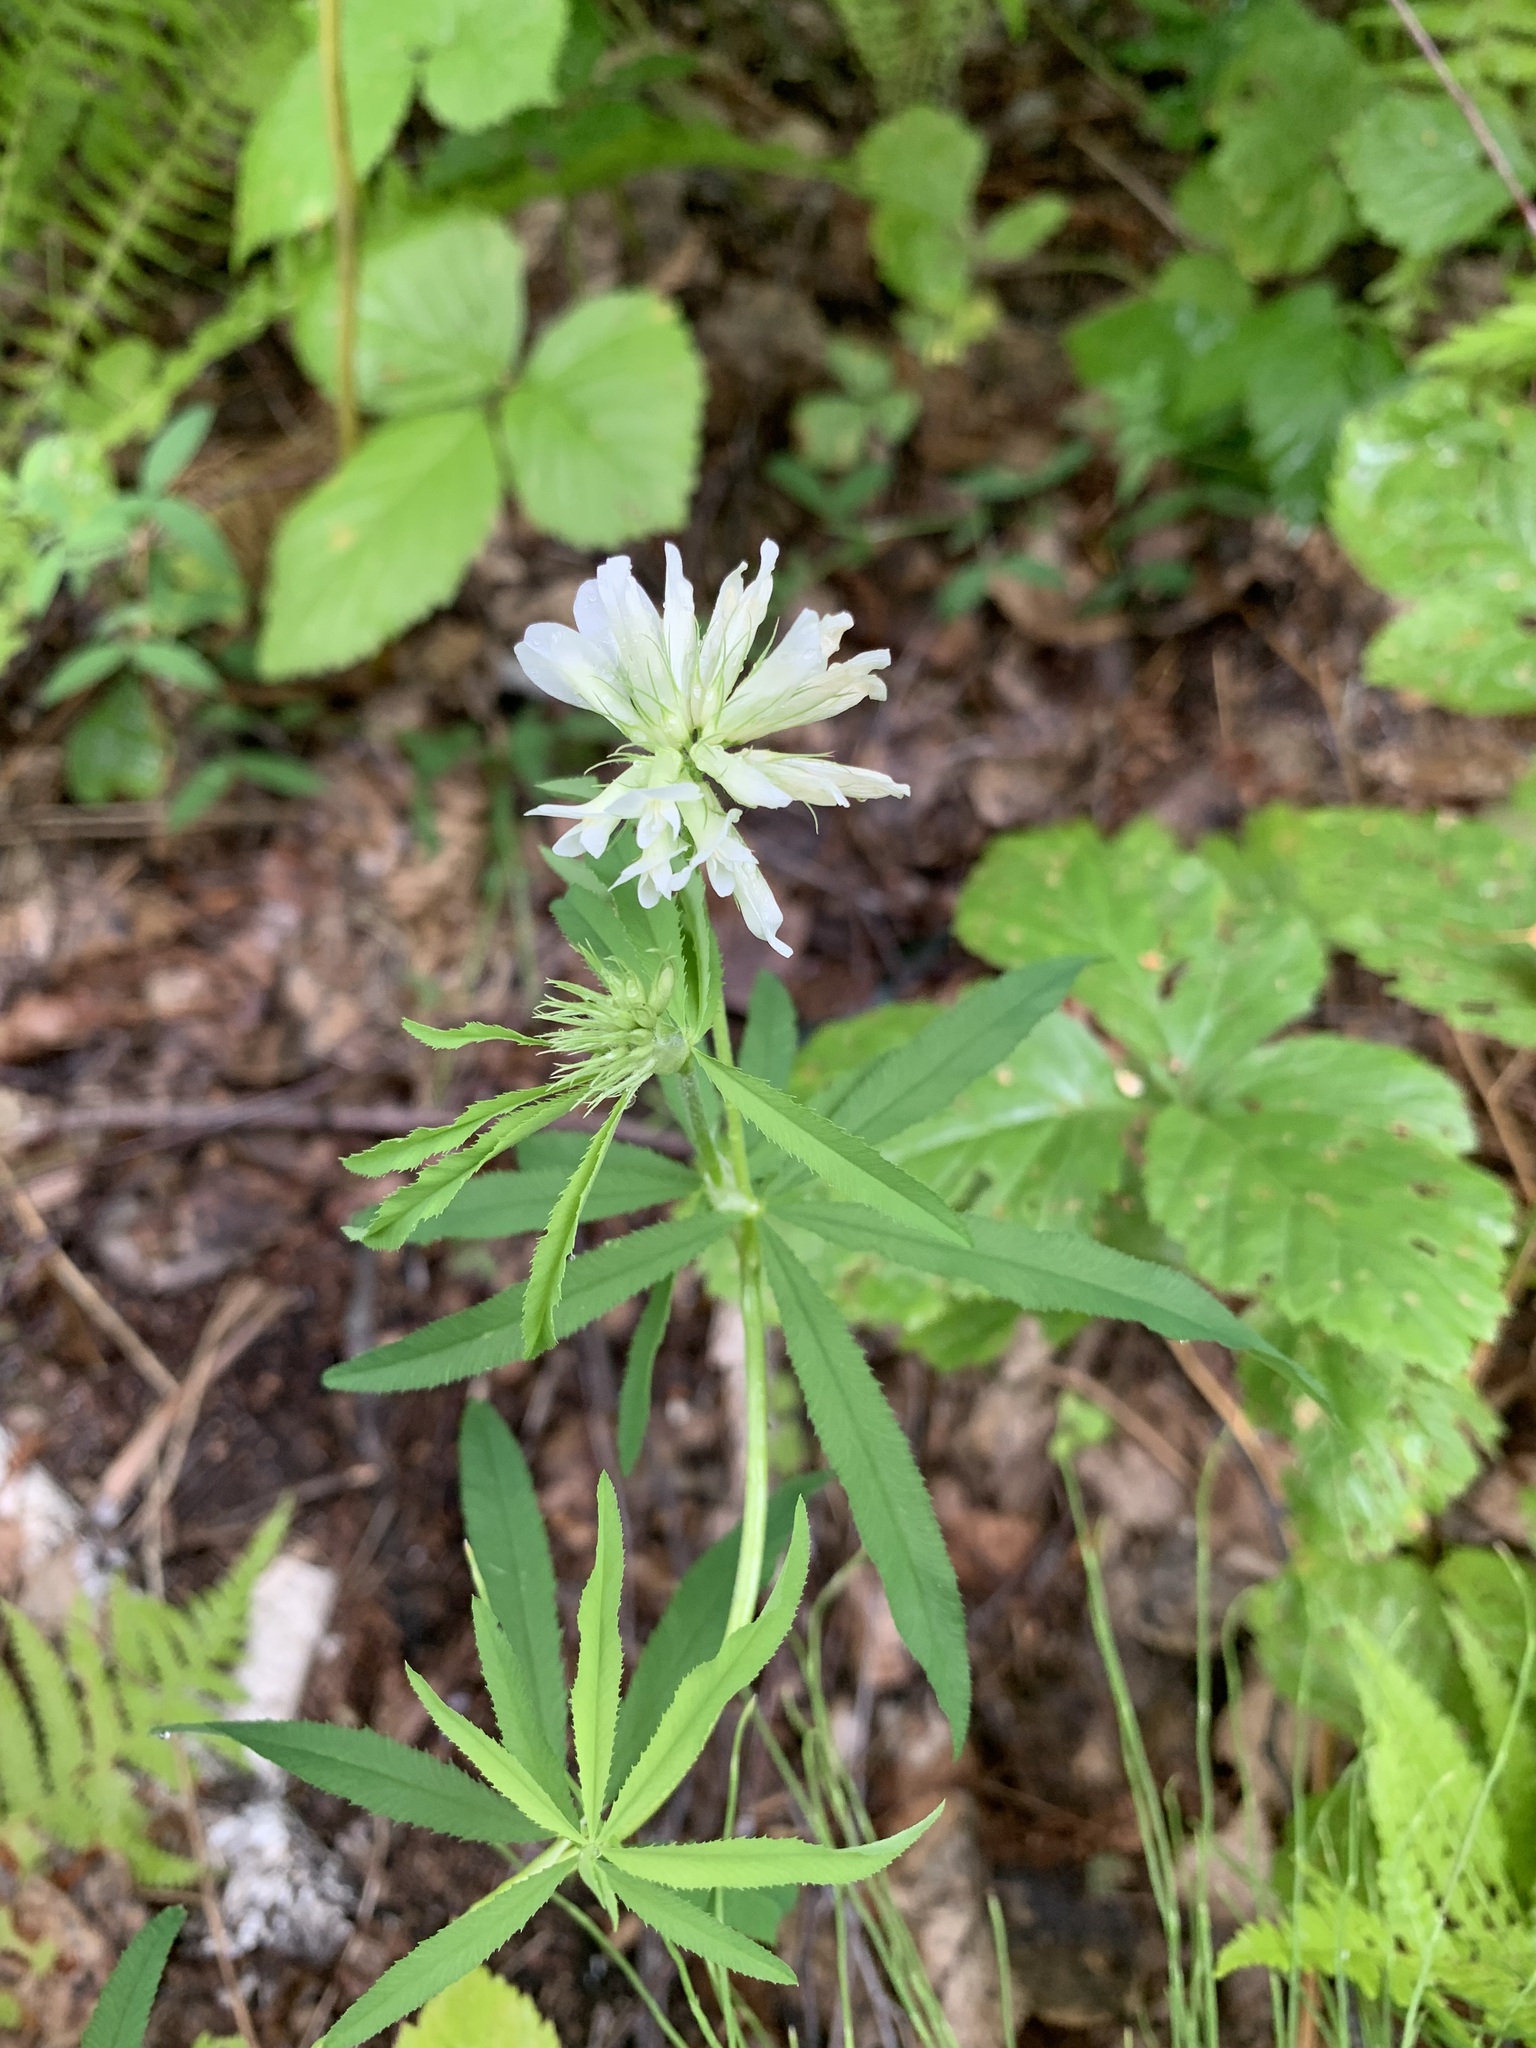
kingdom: Plantae
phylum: Tracheophyta
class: Magnoliopsida
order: Fabales
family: Fabaceae
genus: Trifolium
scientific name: Trifolium lupinaster
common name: Lupine clover
